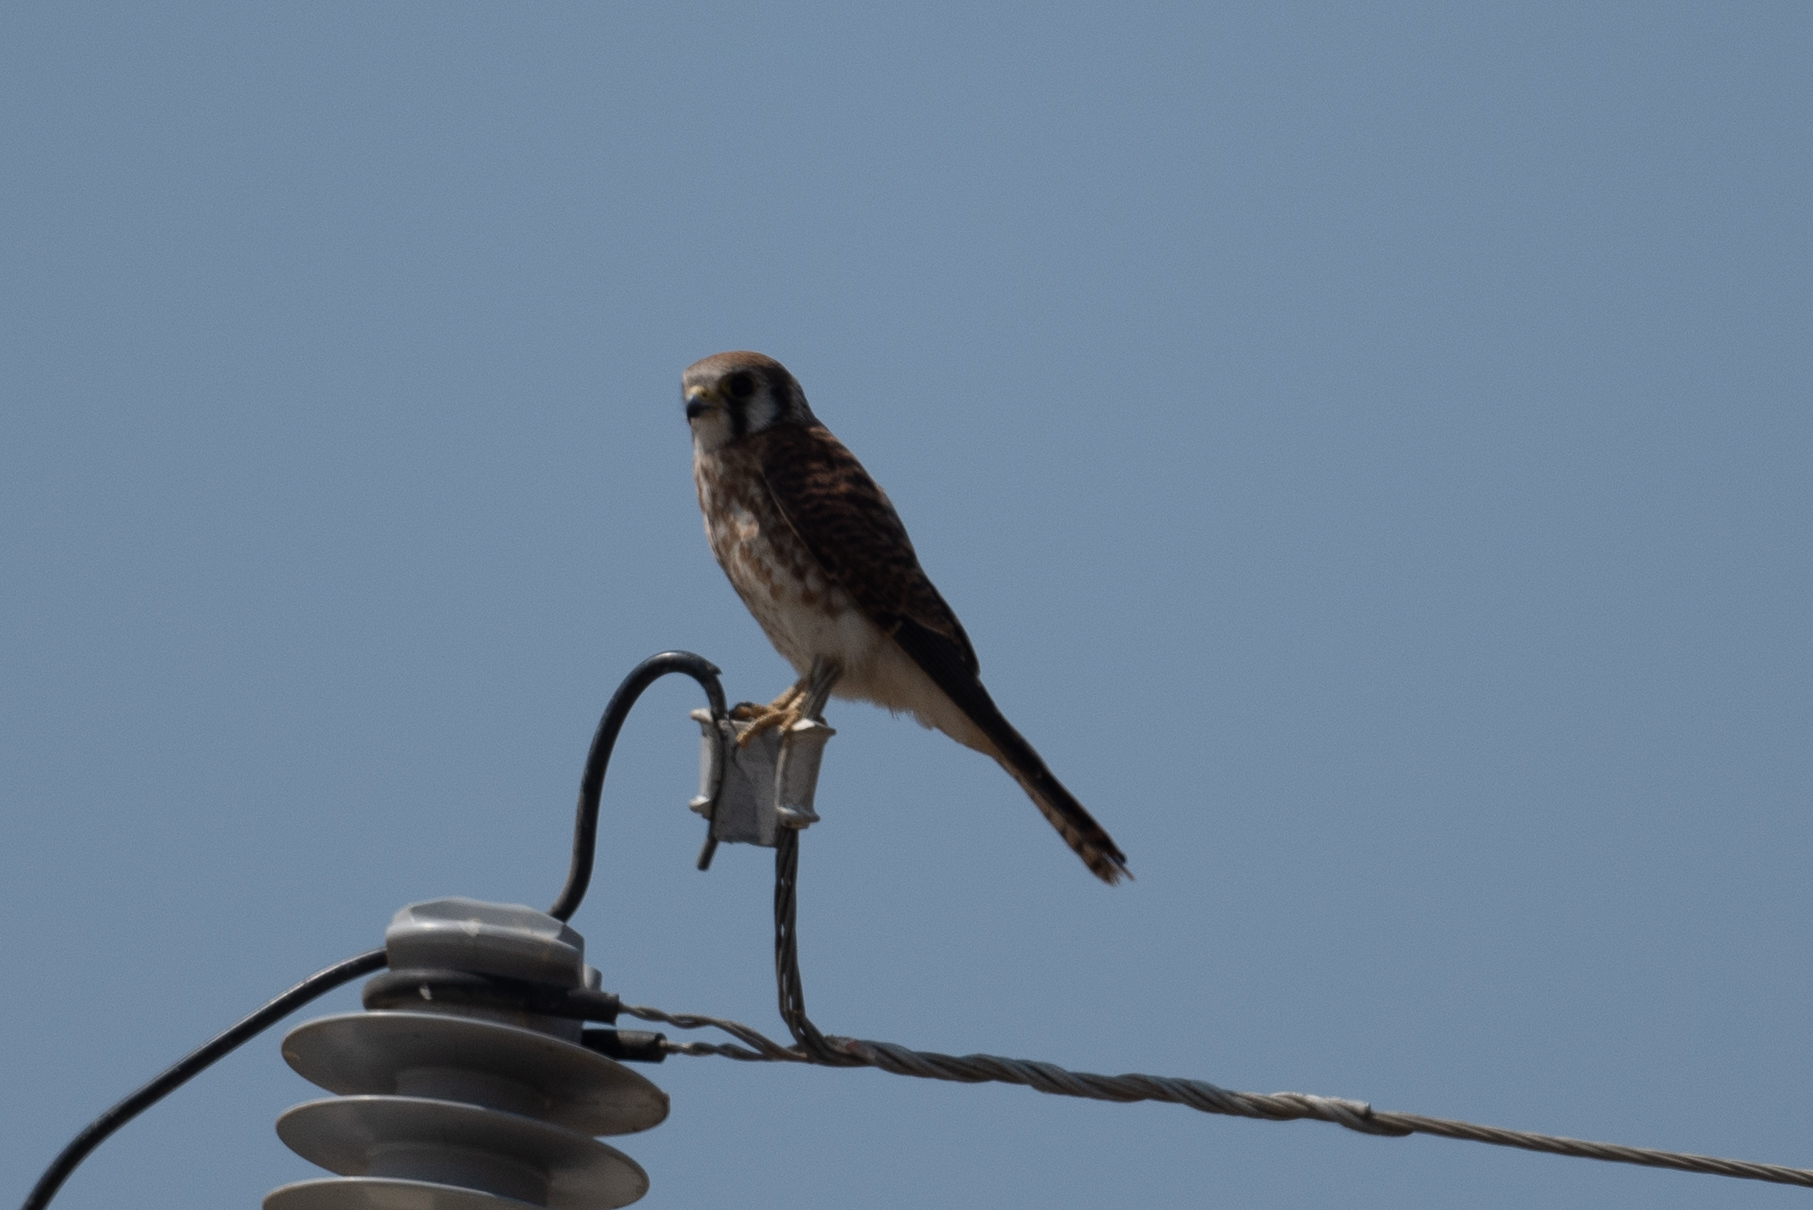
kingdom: Animalia
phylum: Chordata
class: Aves
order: Falconiformes
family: Falconidae
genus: Falco
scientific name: Falco sparverius
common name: American kestrel
